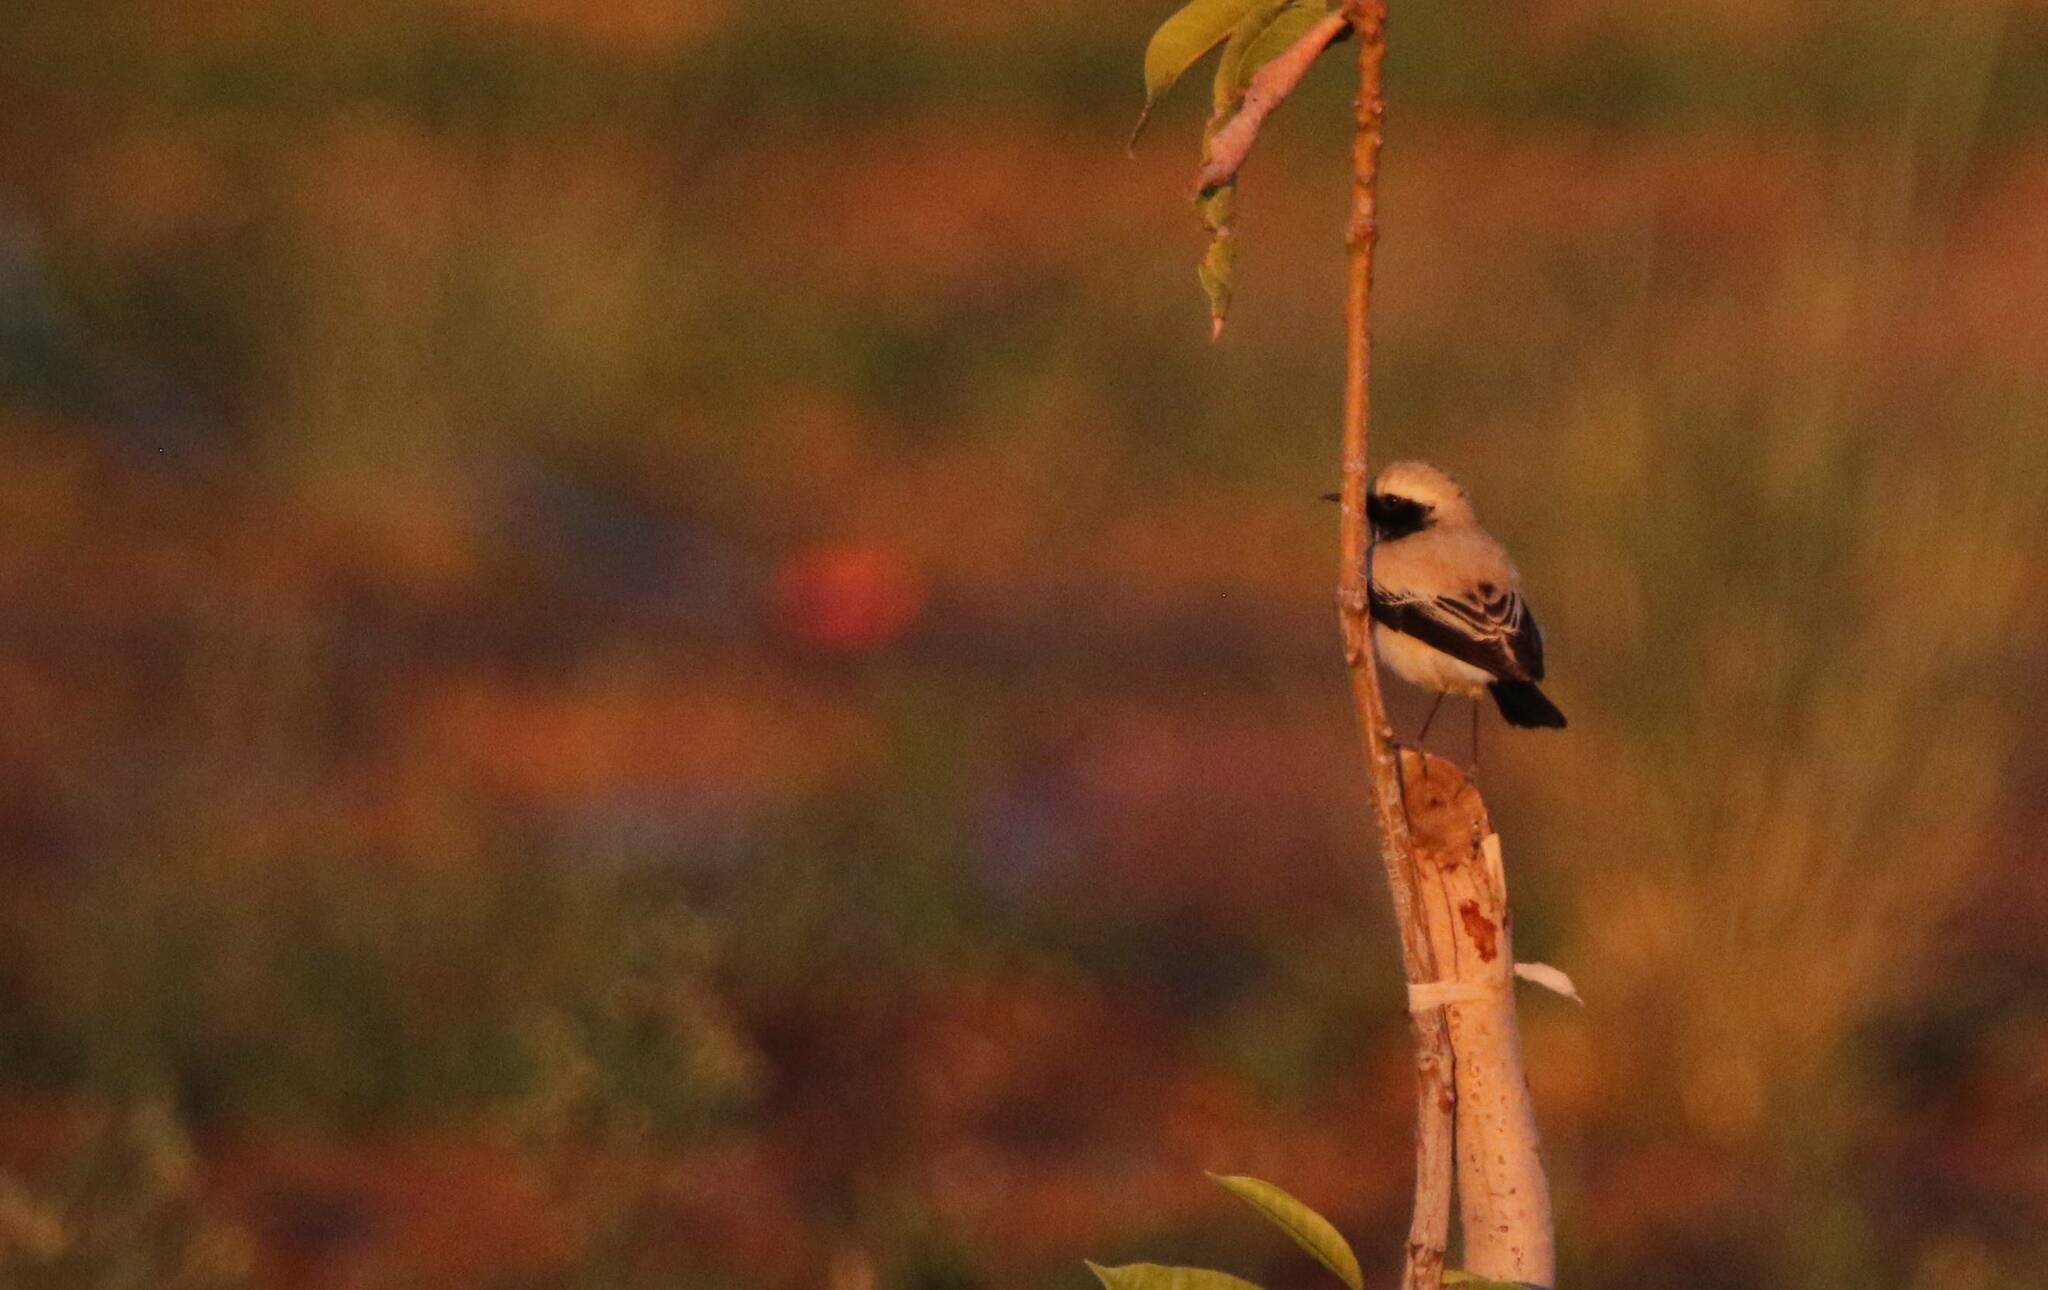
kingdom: Animalia
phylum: Chordata
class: Aves
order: Passeriformes
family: Muscicapidae
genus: Oenanthe
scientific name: Oenanthe deserti
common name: Desert wheatear
